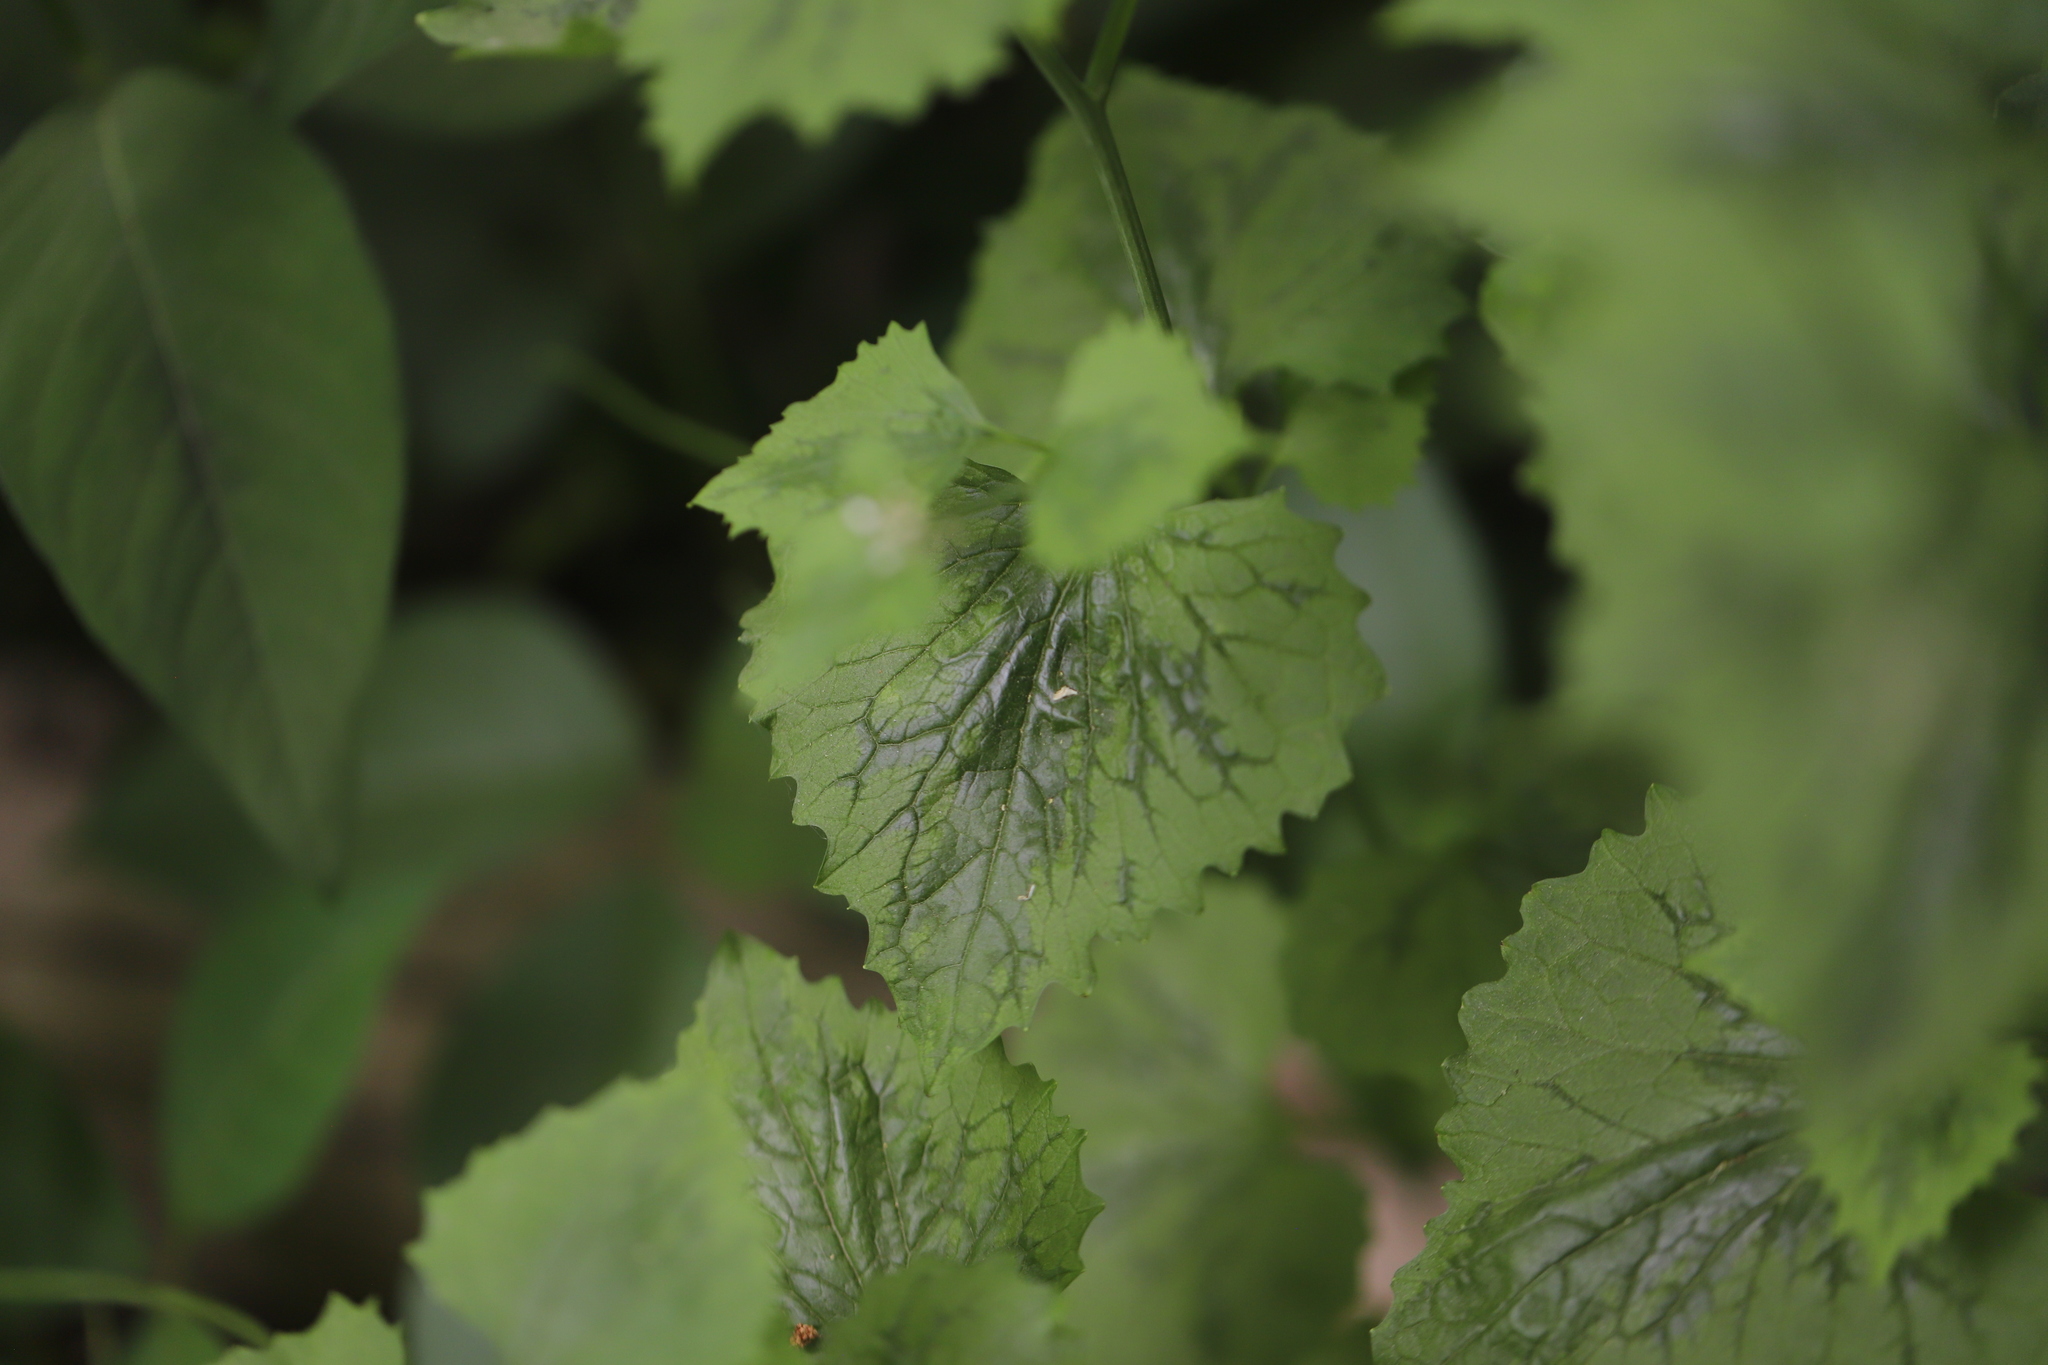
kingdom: Plantae
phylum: Tracheophyta
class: Magnoliopsida
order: Brassicales
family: Brassicaceae
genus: Alliaria
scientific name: Alliaria petiolata
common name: Garlic mustard
